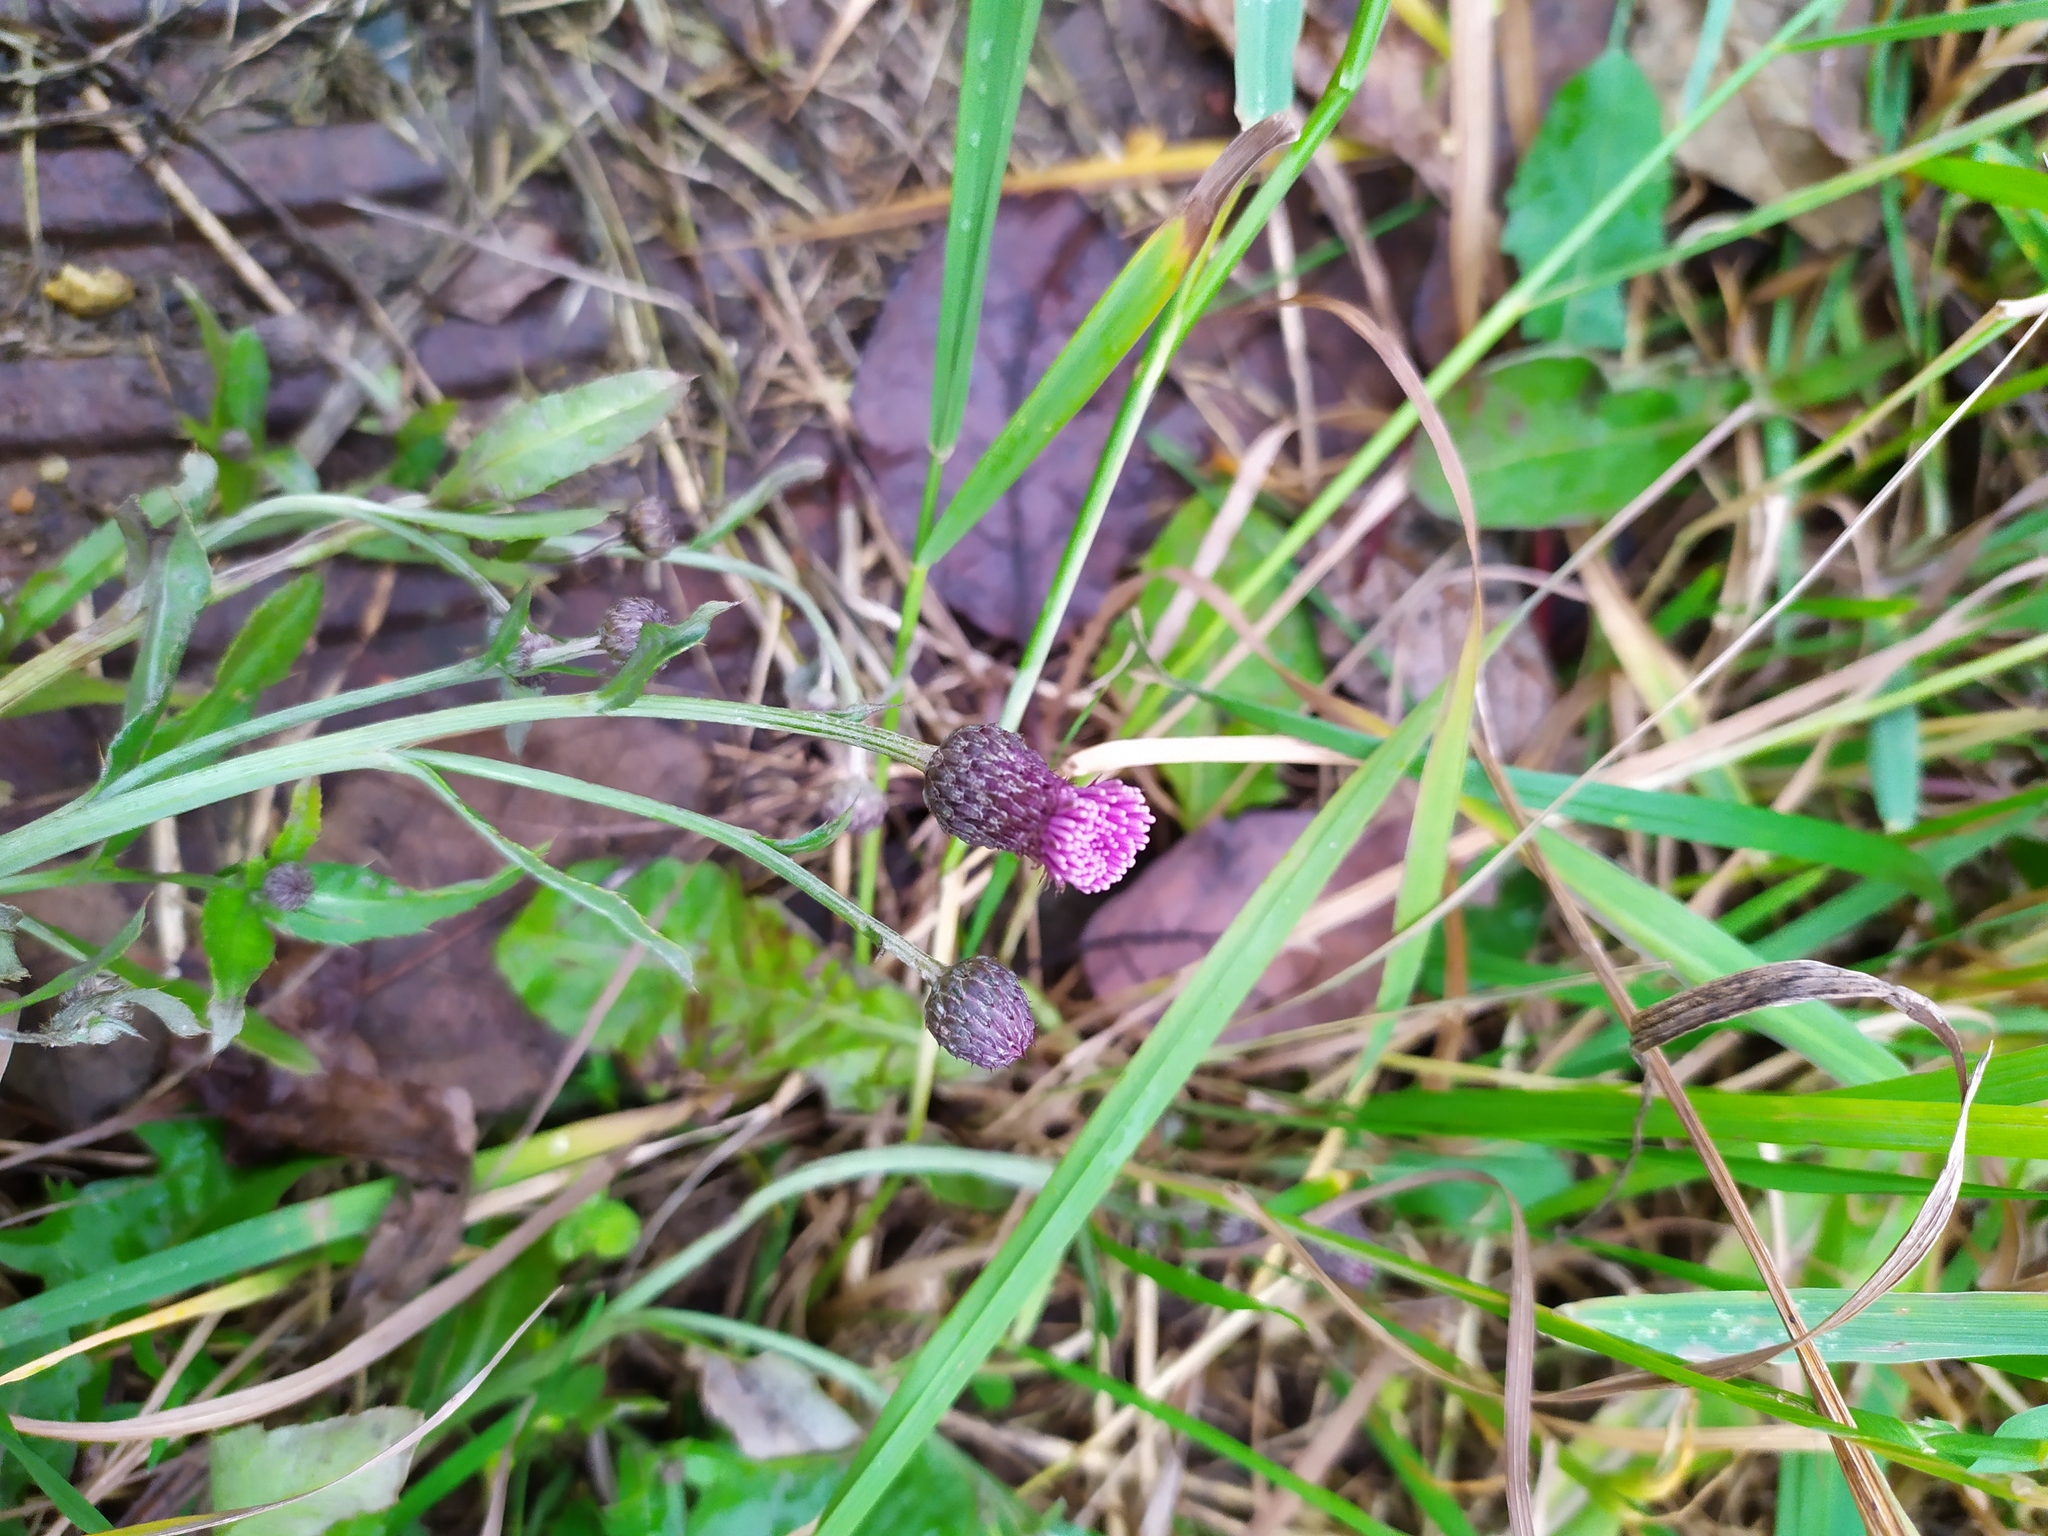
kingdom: Plantae
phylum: Tracheophyta
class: Magnoliopsida
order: Asterales
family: Asteraceae
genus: Cirsium
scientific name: Cirsium arvense
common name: Creeping thistle
